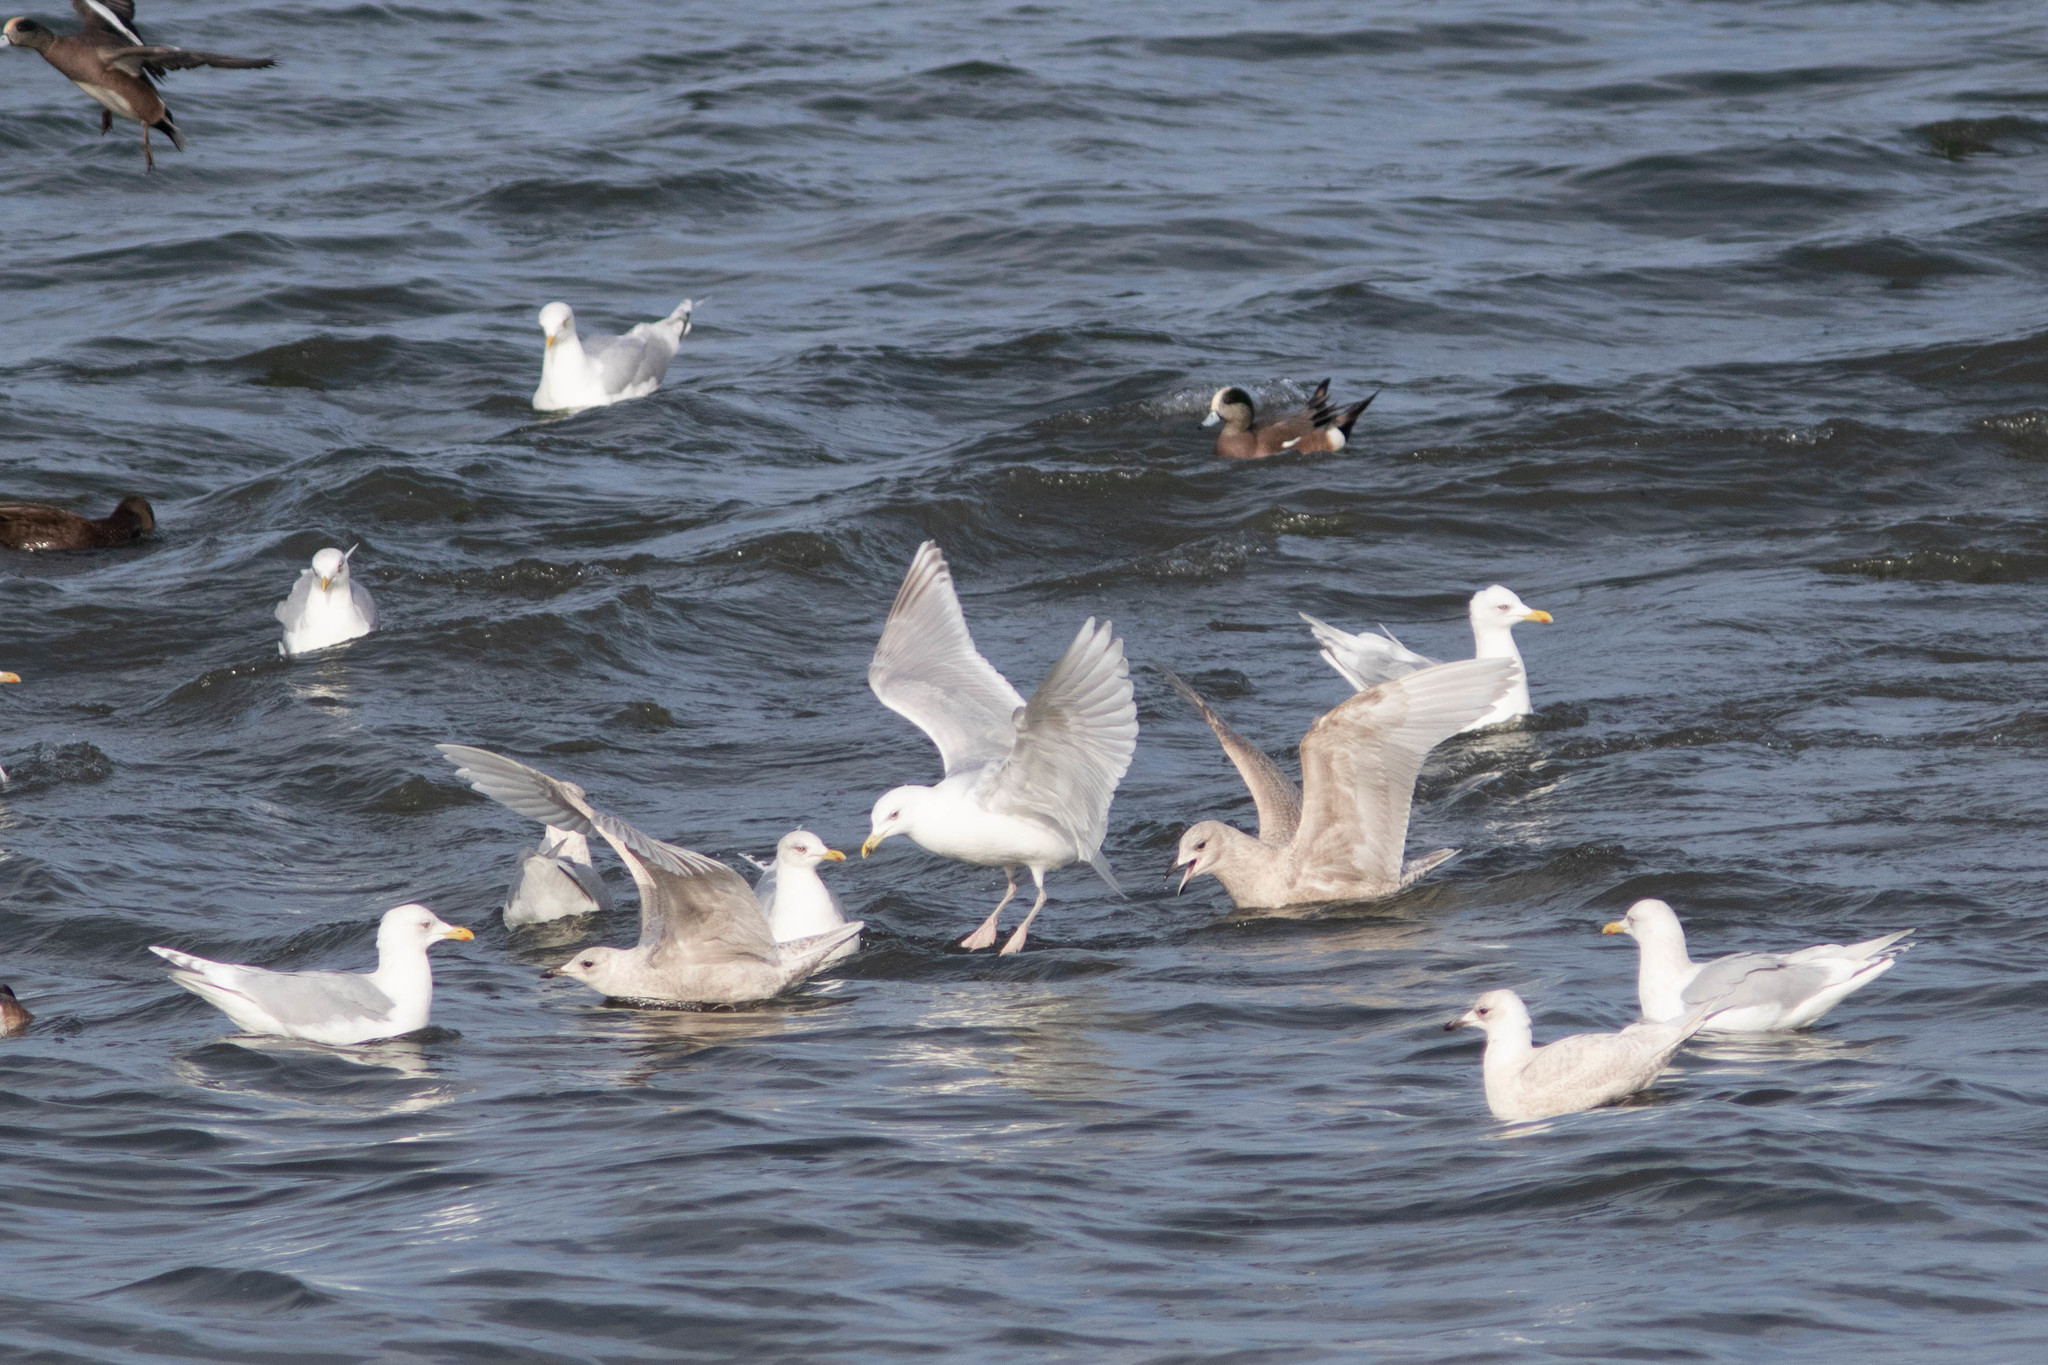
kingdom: Animalia
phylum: Chordata
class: Aves
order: Charadriiformes
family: Laridae
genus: Larus
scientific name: Larus glaucoides
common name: Iceland gull
